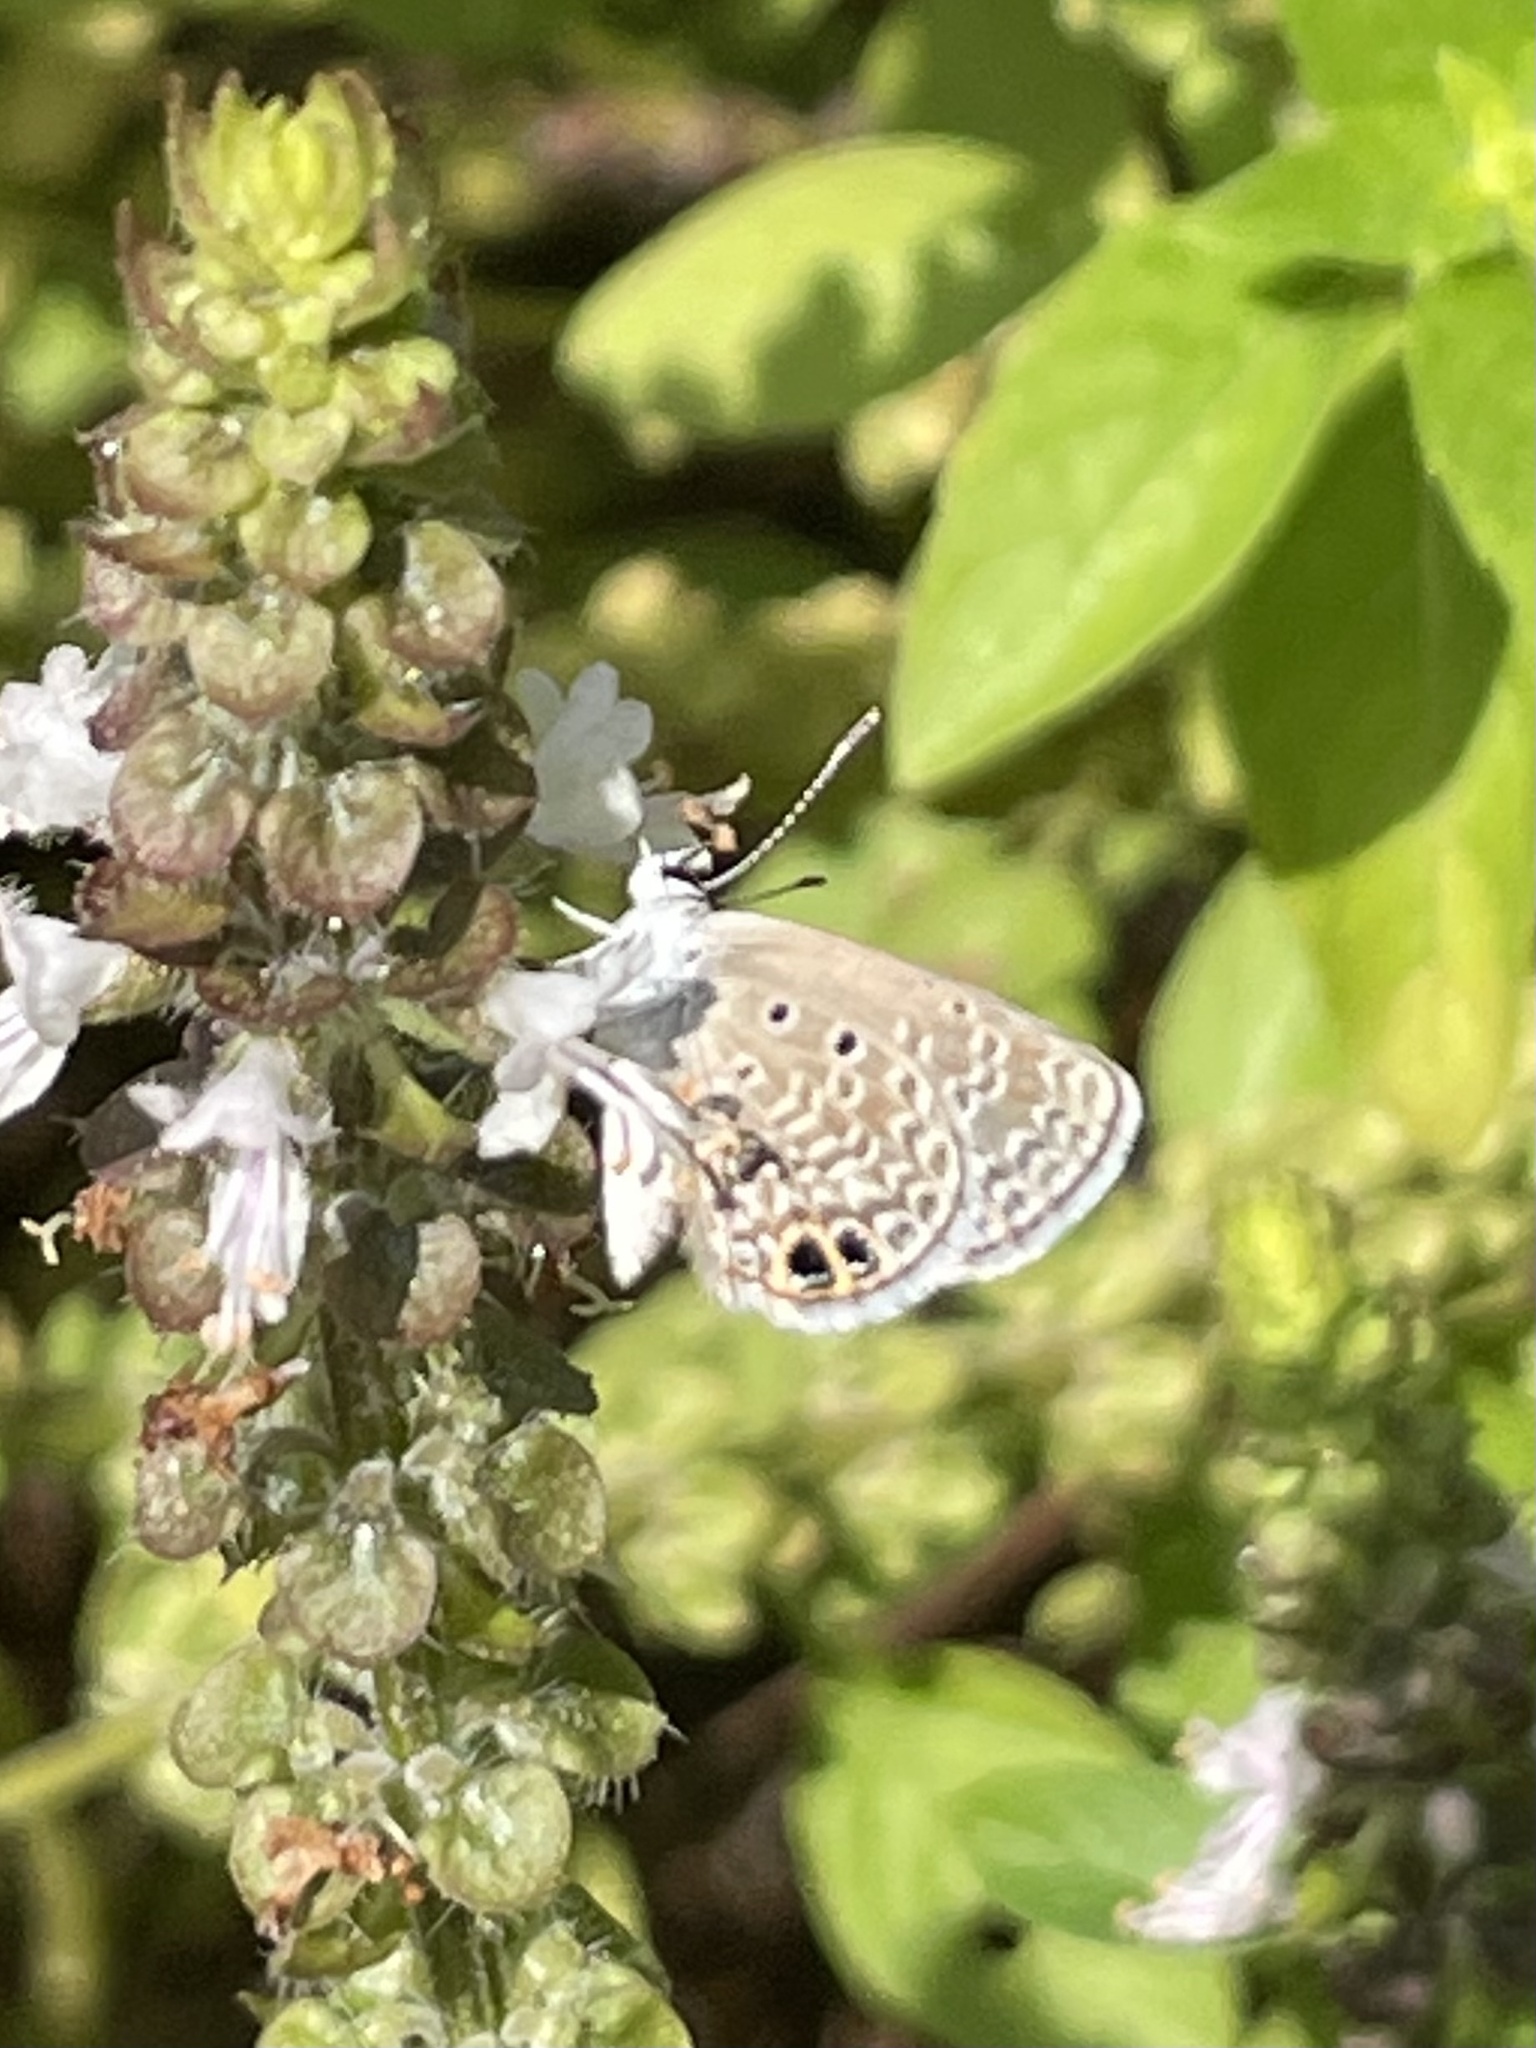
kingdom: Animalia
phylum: Arthropoda
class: Insecta
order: Lepidoptera
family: Lycaenidae
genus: Hemiargus
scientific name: Hemiargus ceraunus
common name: Ceraunus blue
